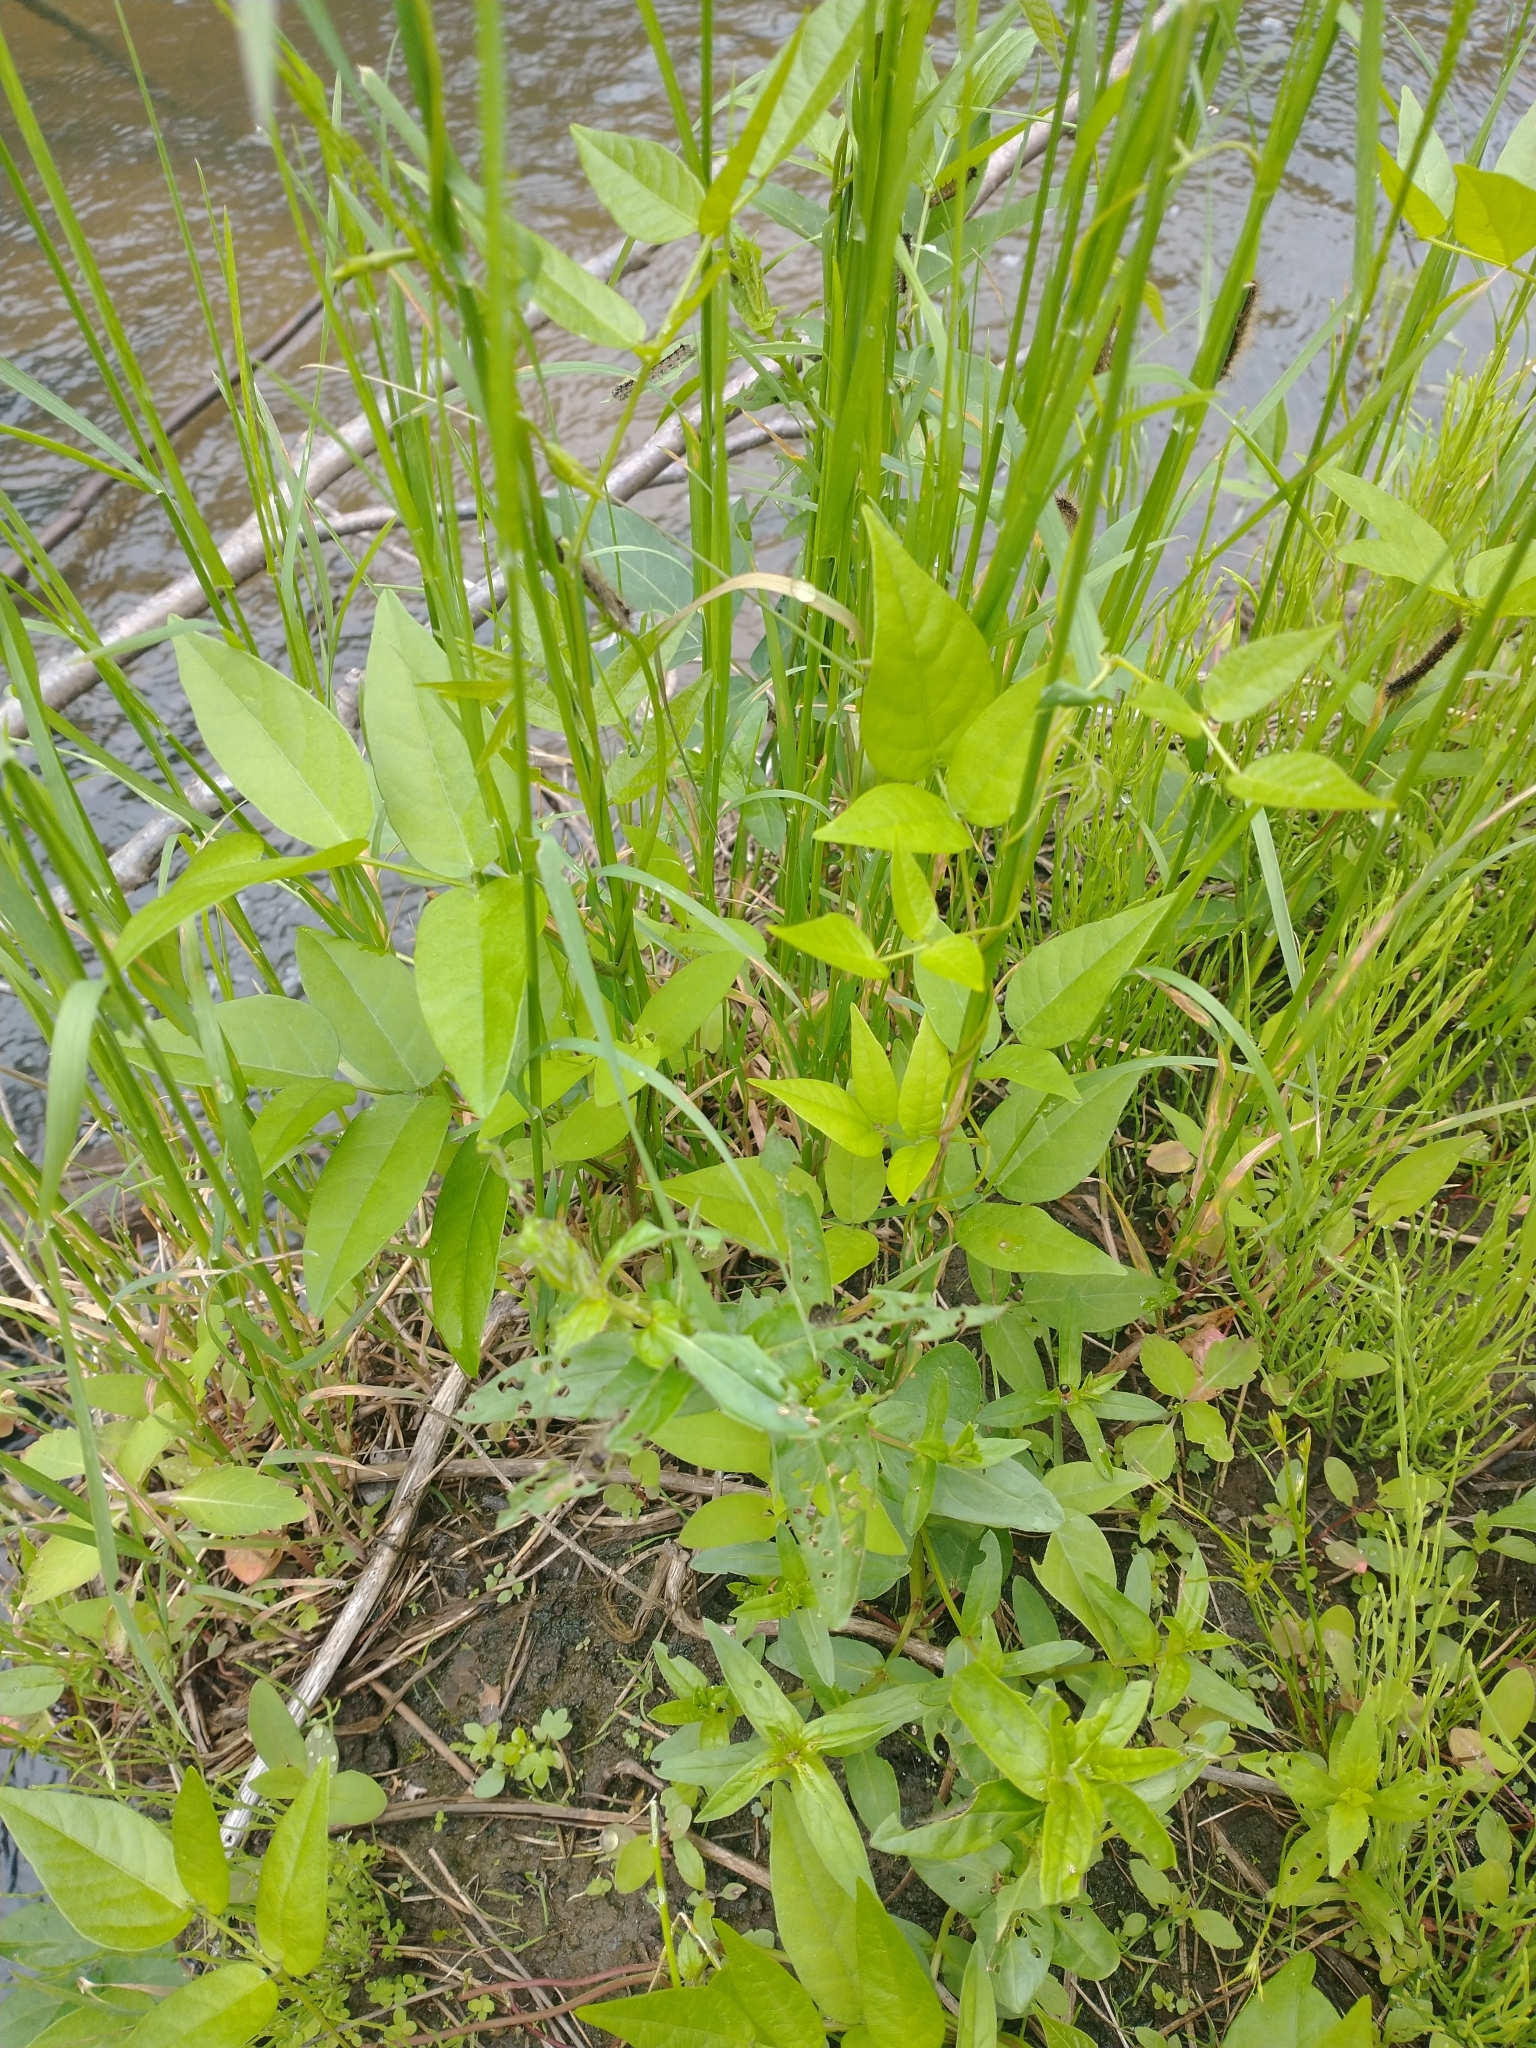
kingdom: Plantae
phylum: Tracheophyta
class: Magnoliopsida
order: Fabales
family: Fabaceae
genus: Apios
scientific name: Apios americana
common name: American potato-bean
